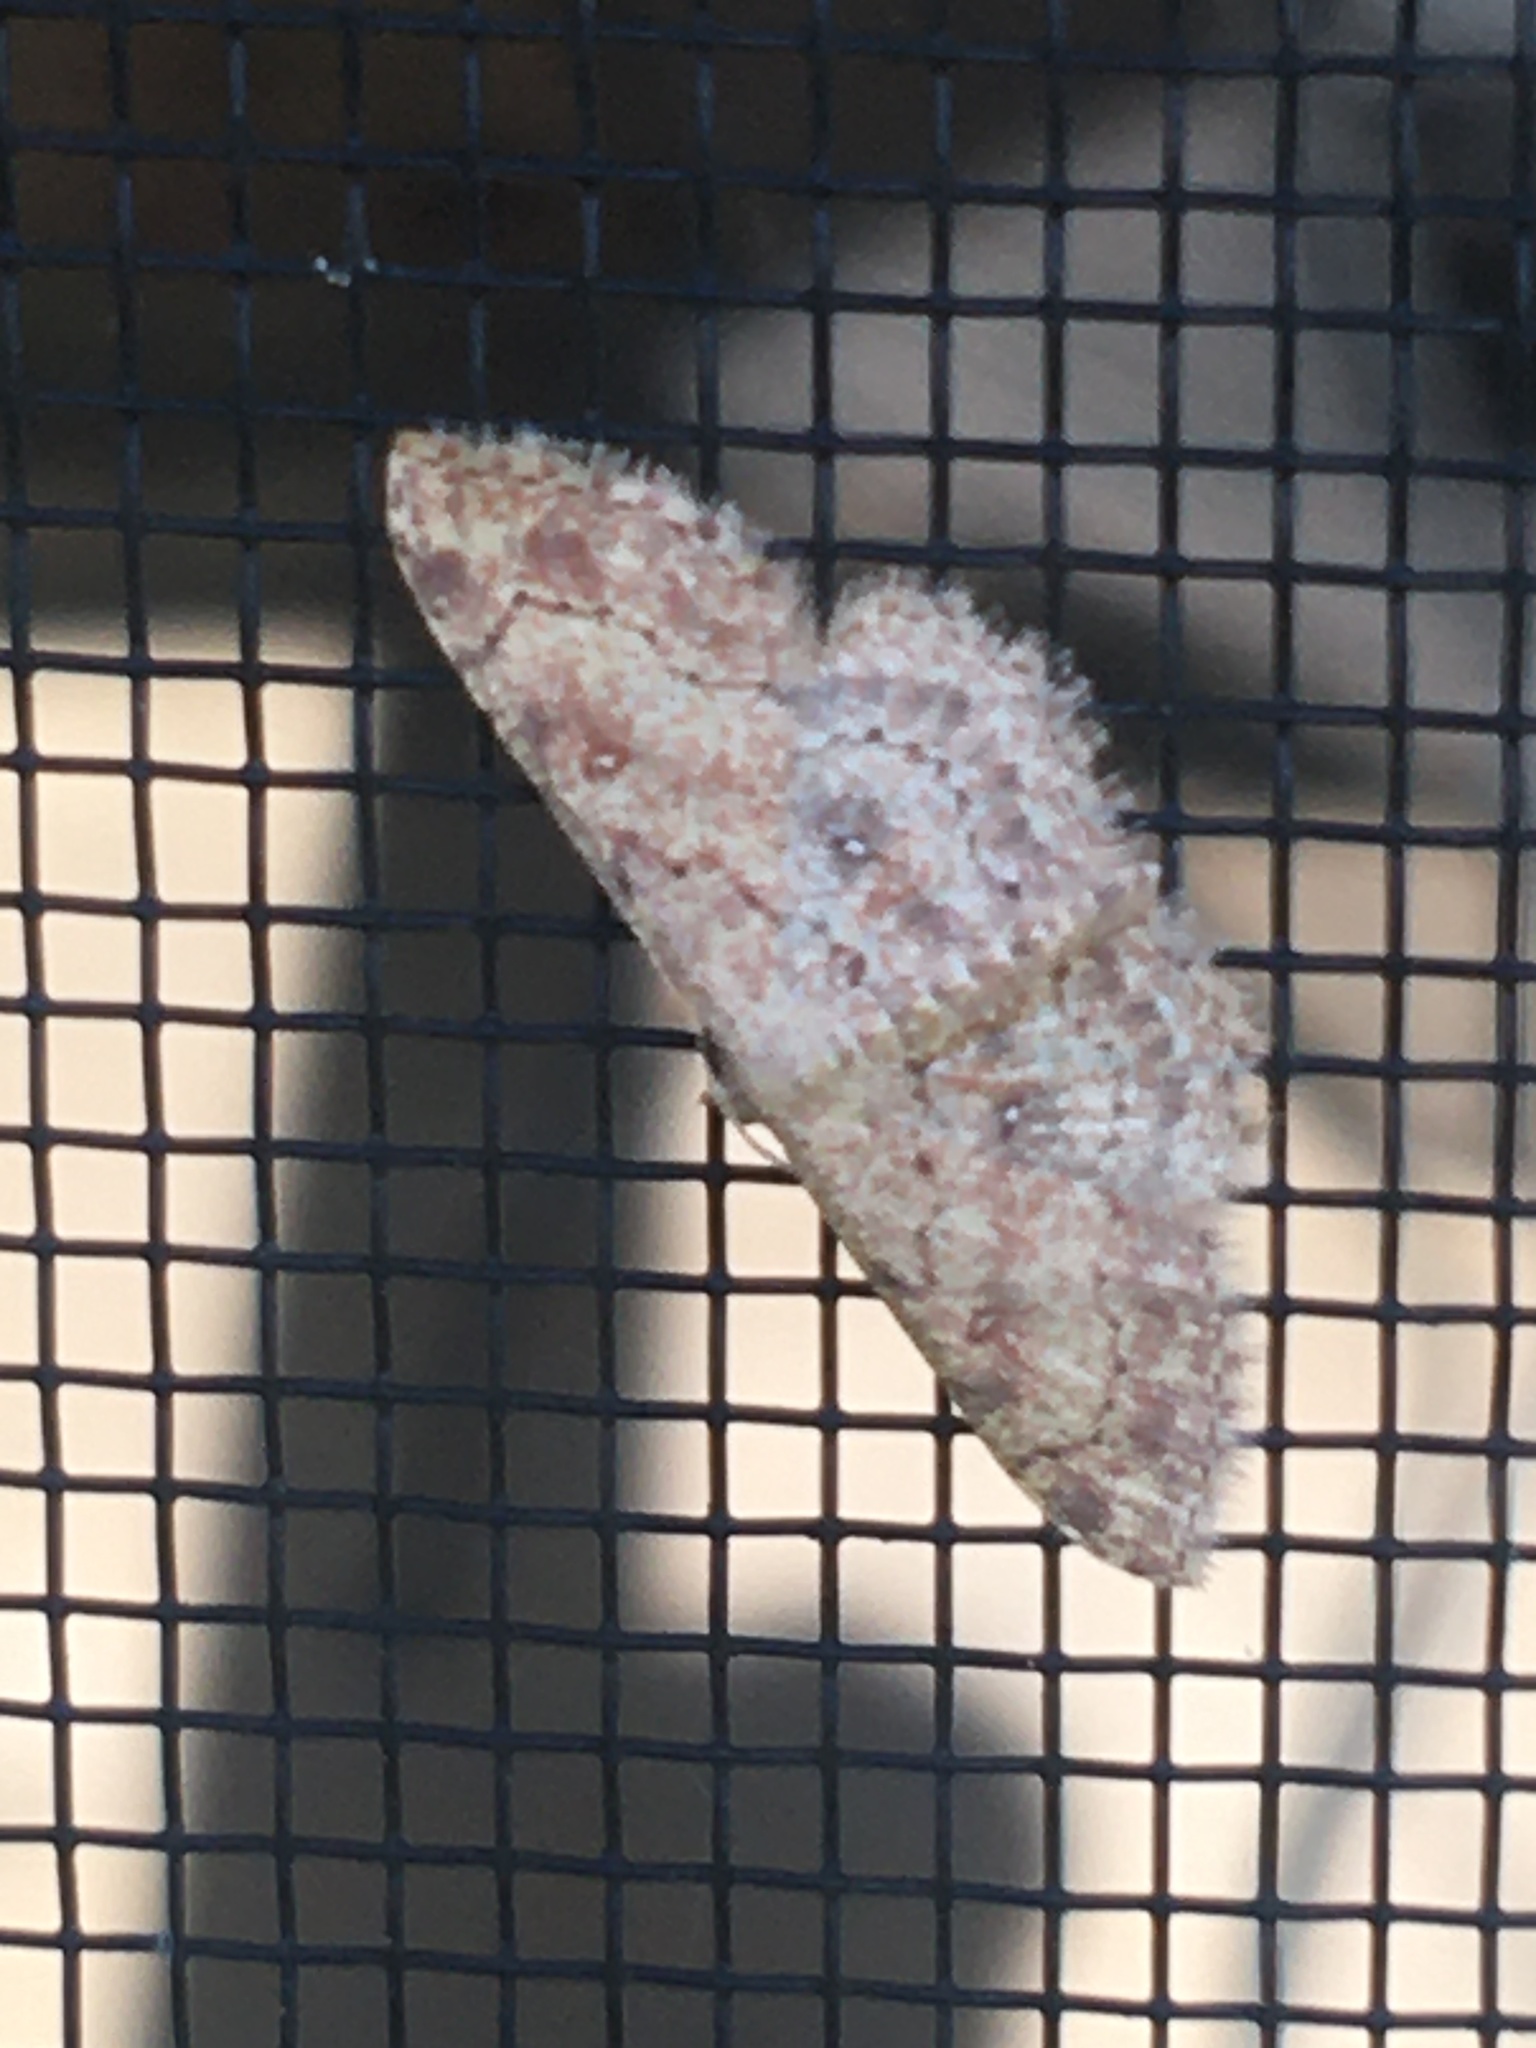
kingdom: Animalia
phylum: Arthropoda
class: Insecta
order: Lepidoptera
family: Geometridae
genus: Cyclophora
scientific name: Cyclophora nanaria
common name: Cankerworm
